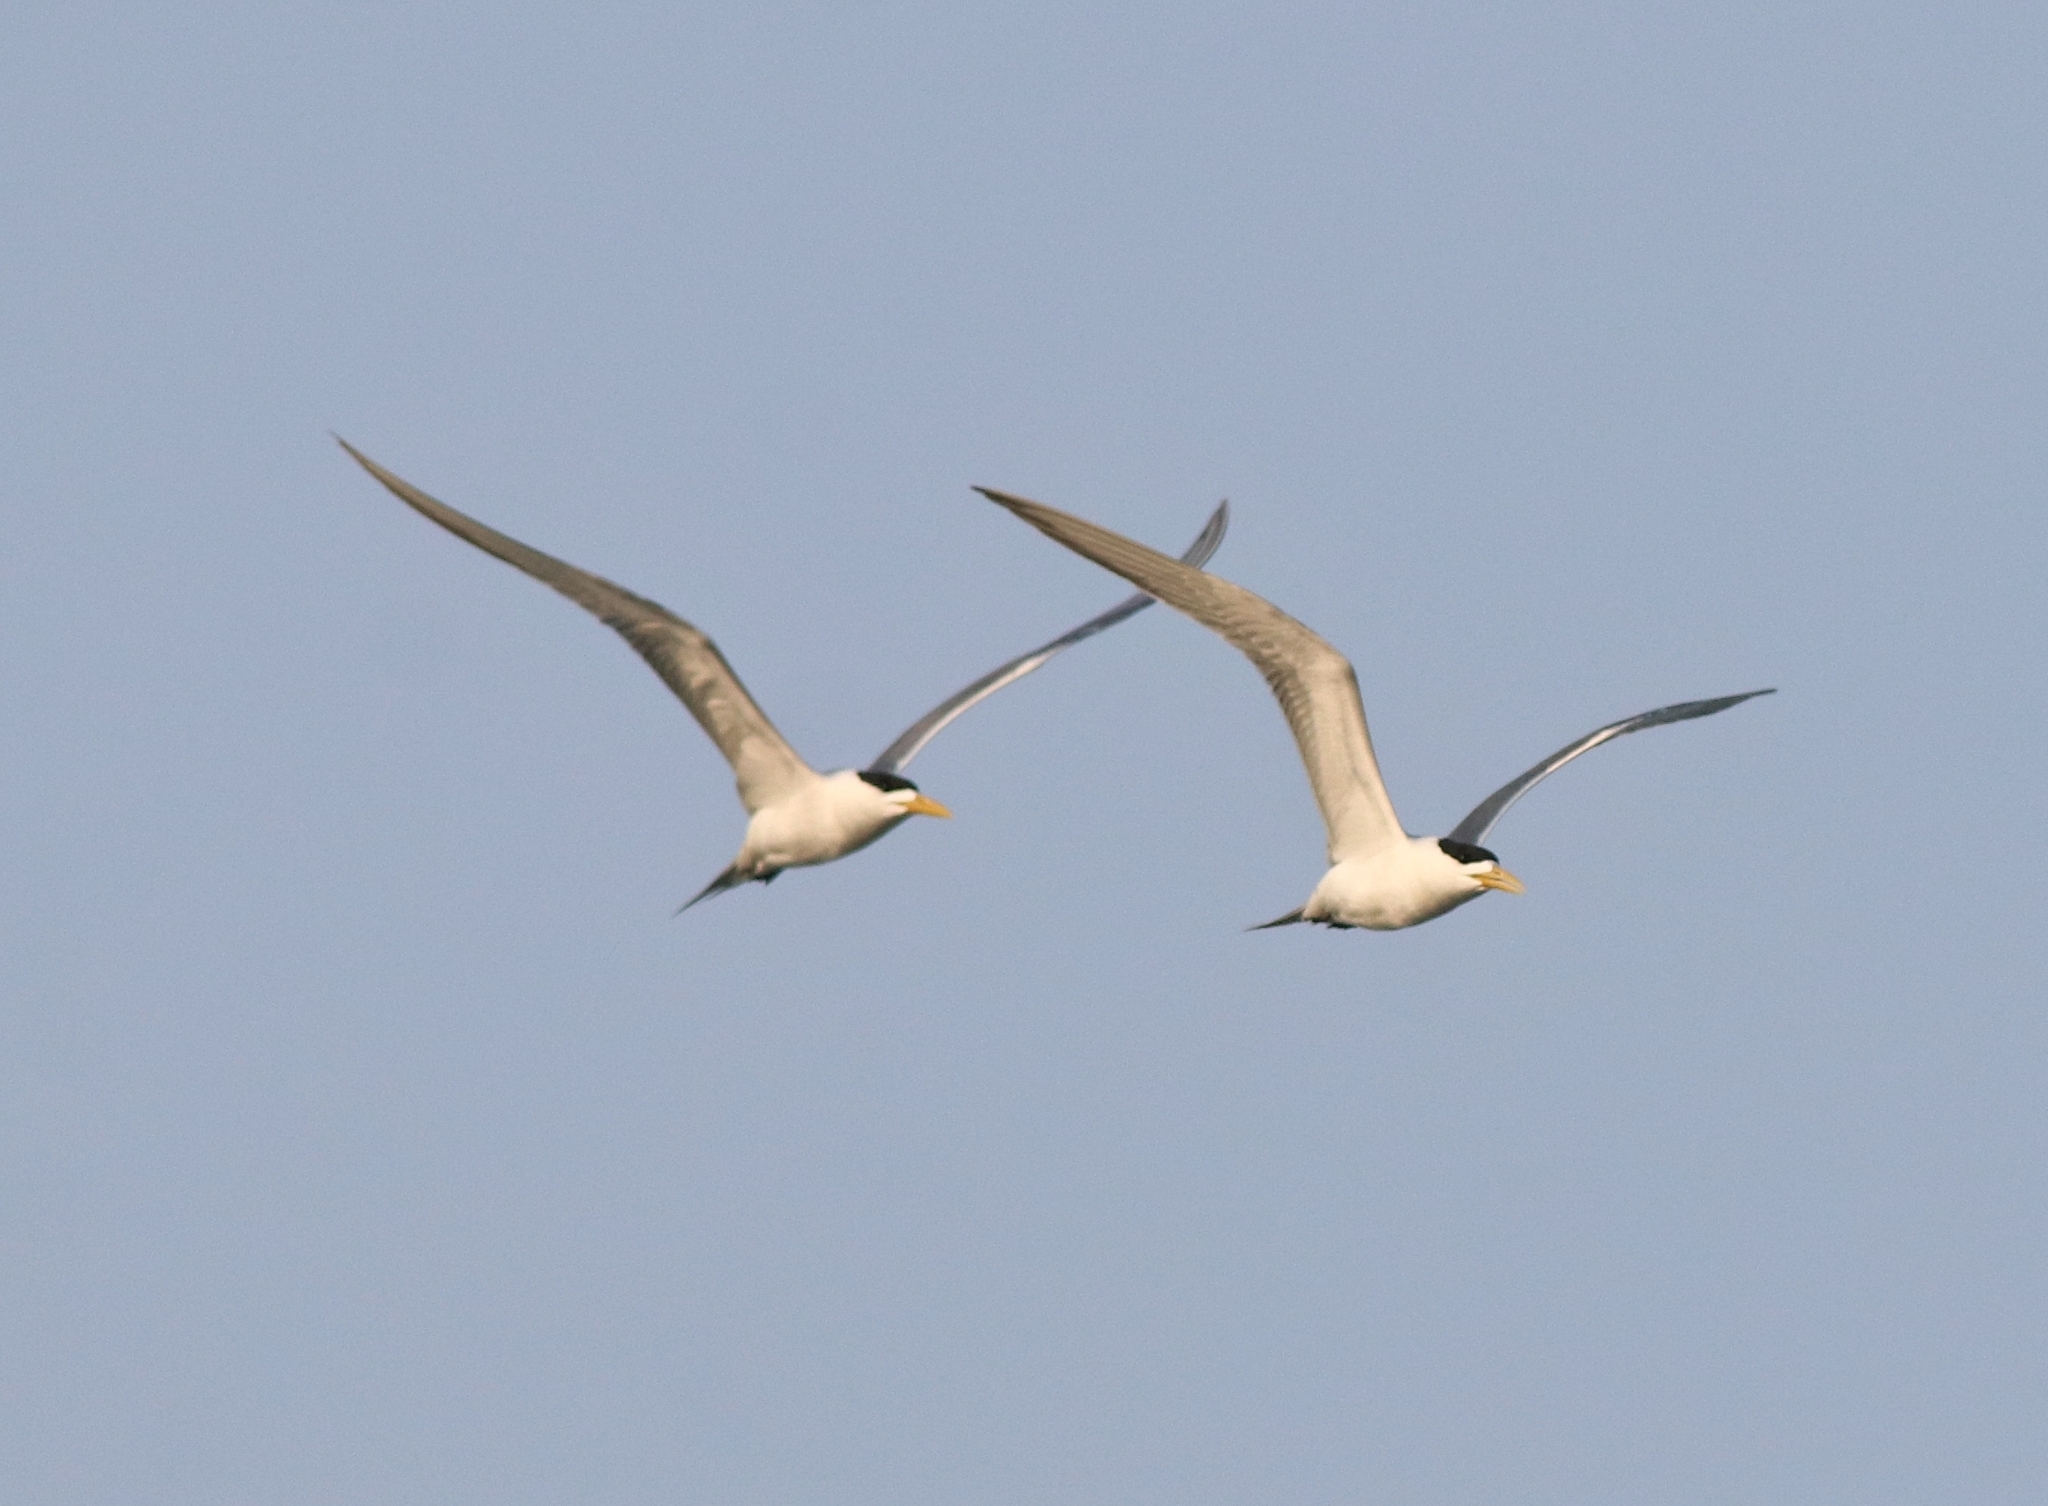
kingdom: Animalia
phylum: Chordata
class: Aves
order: Charadriiformes
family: Laridae
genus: Thalasseus
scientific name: Thalasseus bergii
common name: Greater crested tern
